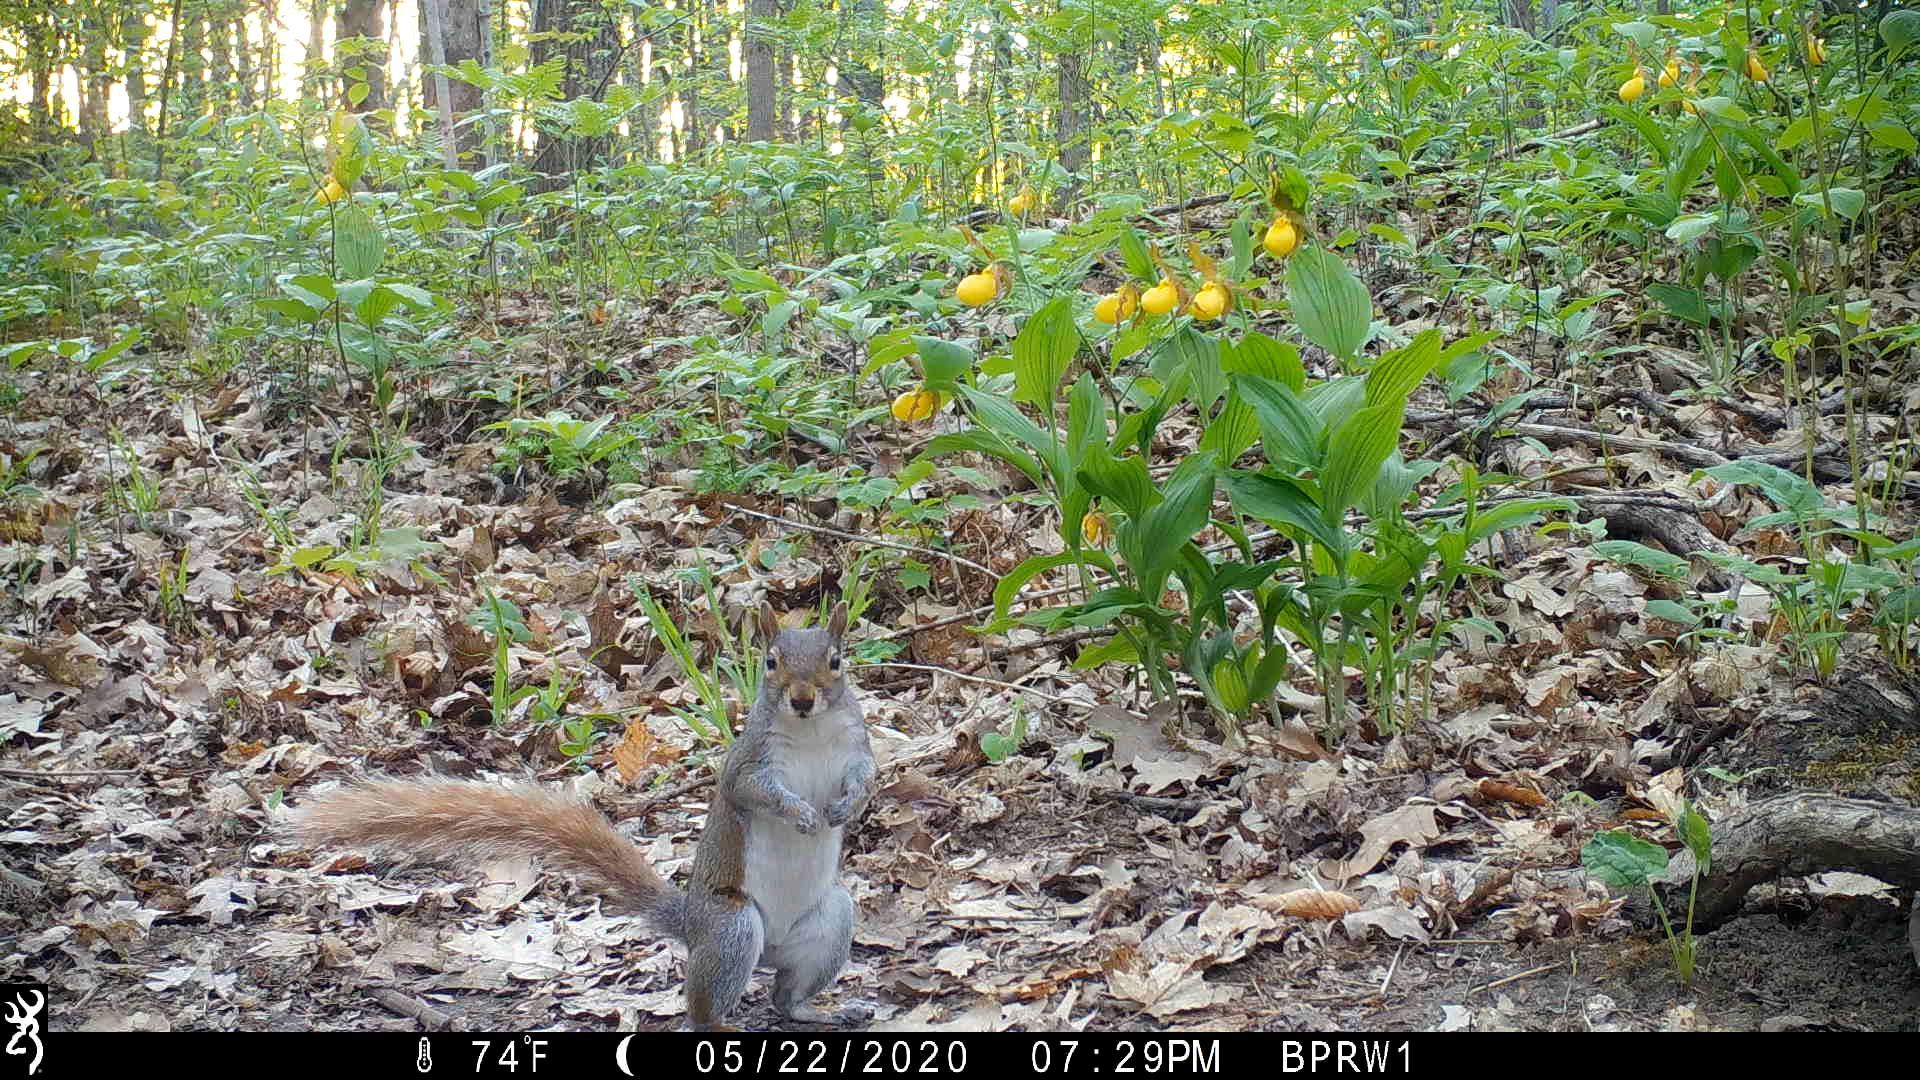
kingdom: Animalia
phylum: Chordata
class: Mammalia
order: Rodentia
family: Sciuridae
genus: Sciurus
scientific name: Sciurus carolinensis
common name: Eastern gray squirrel
